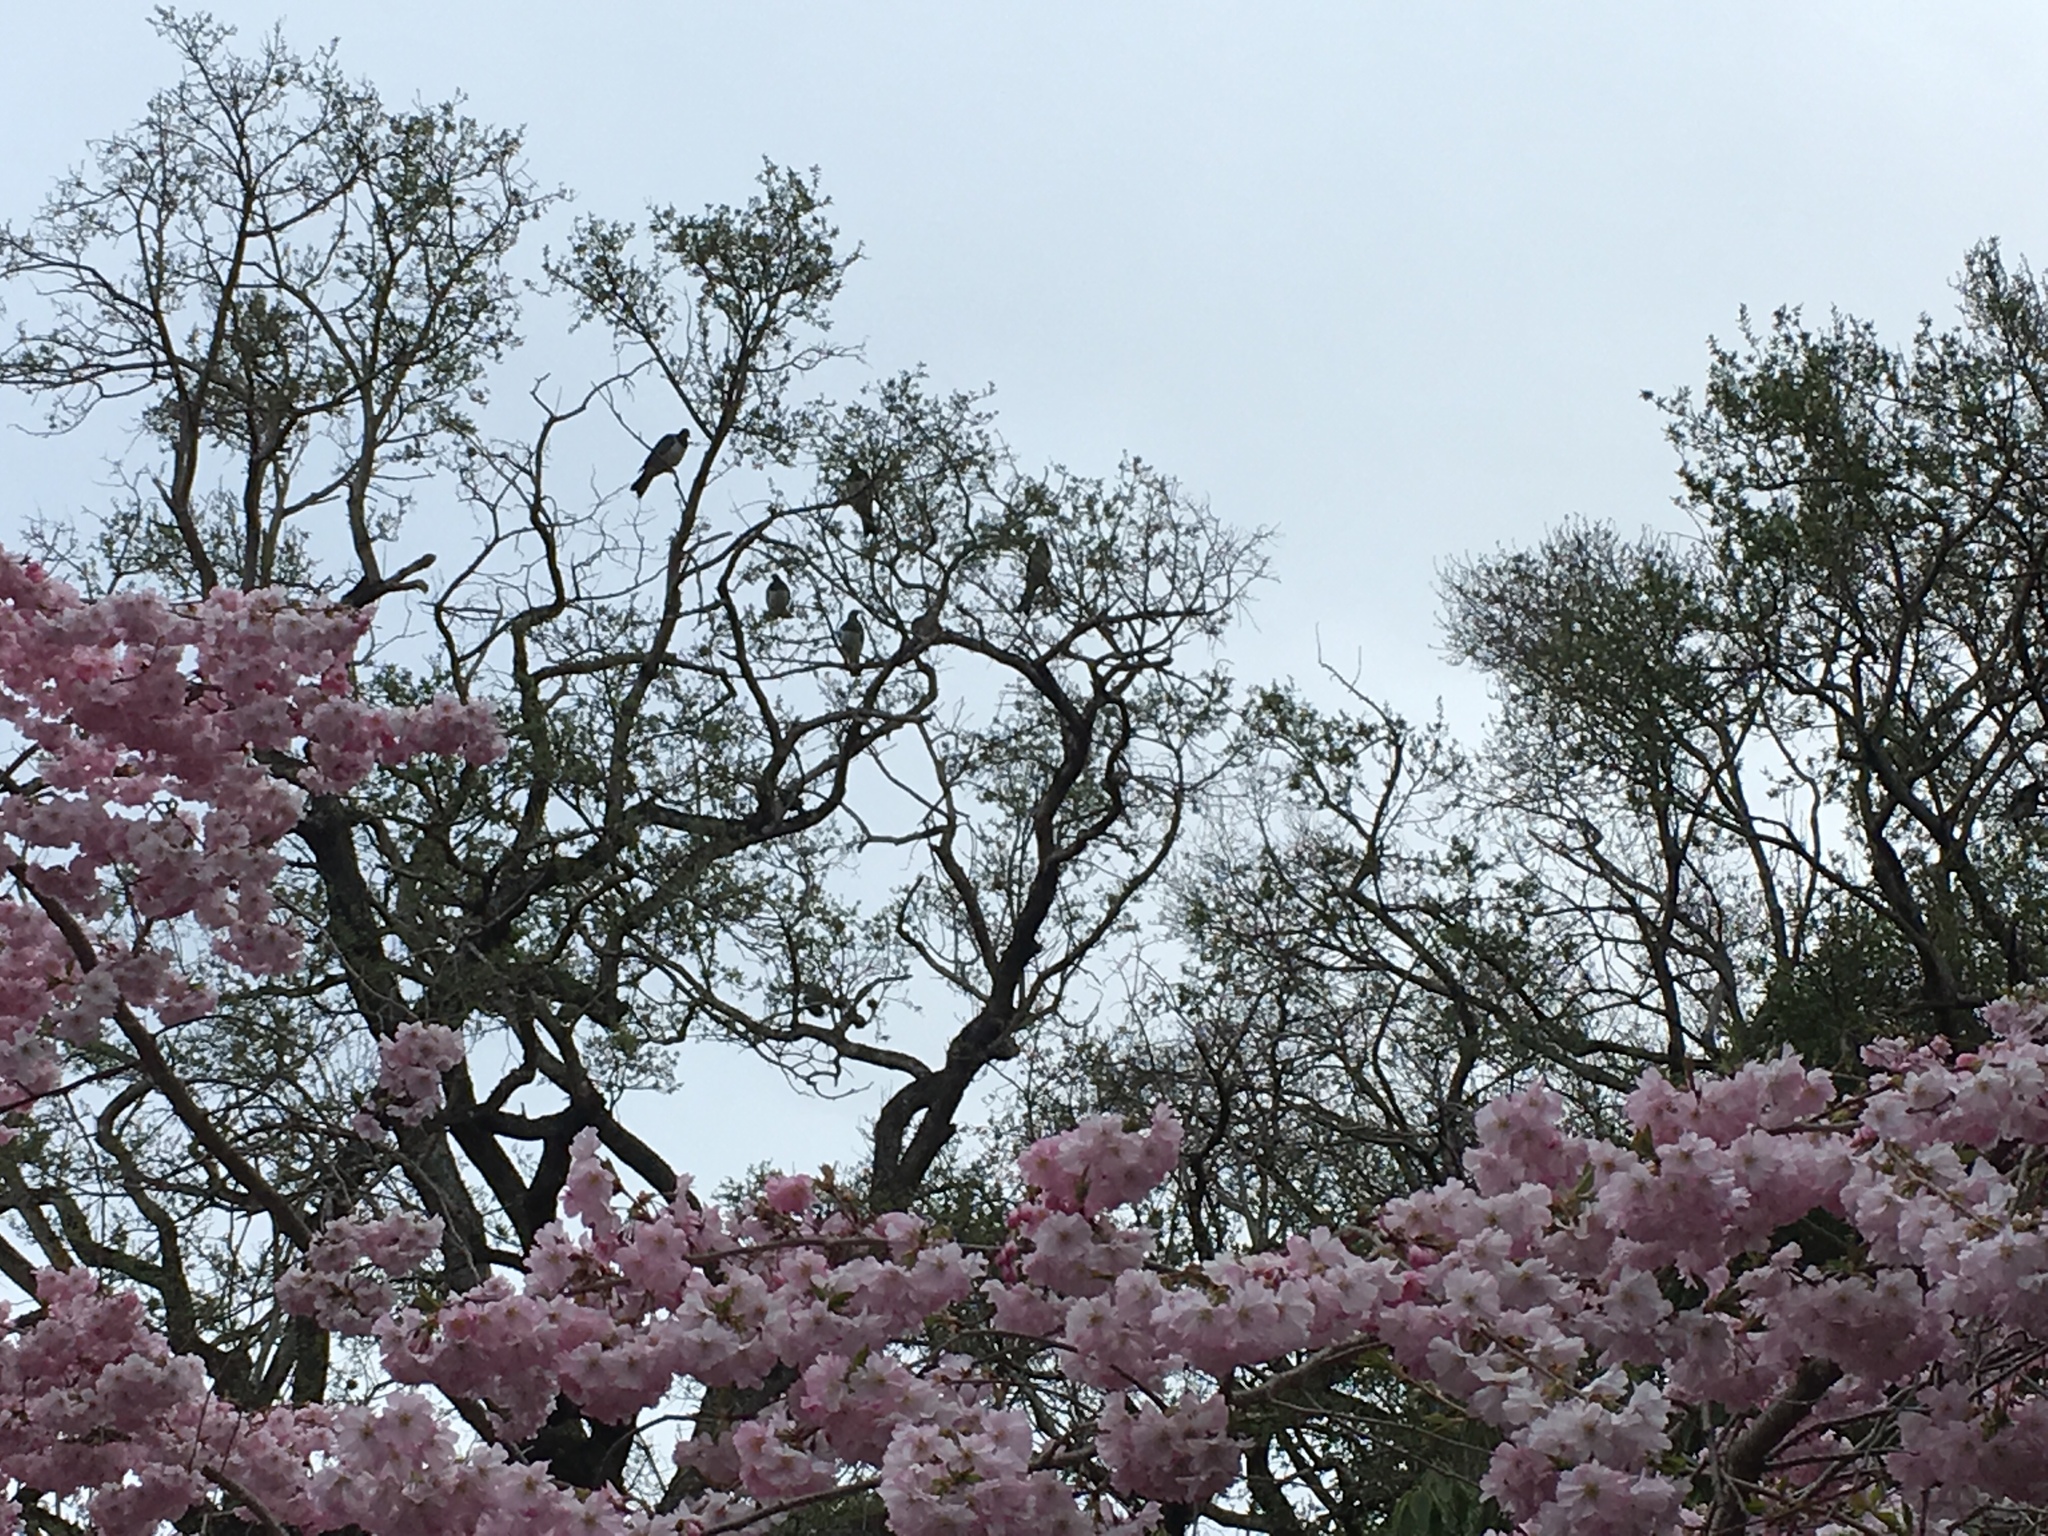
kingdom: Animalia
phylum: Chordata
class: Aves
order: Columbiformes
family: Columbidae
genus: Hemiphaga
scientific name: Hemiphaga novaeseelandiae
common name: New zealand pigeon
